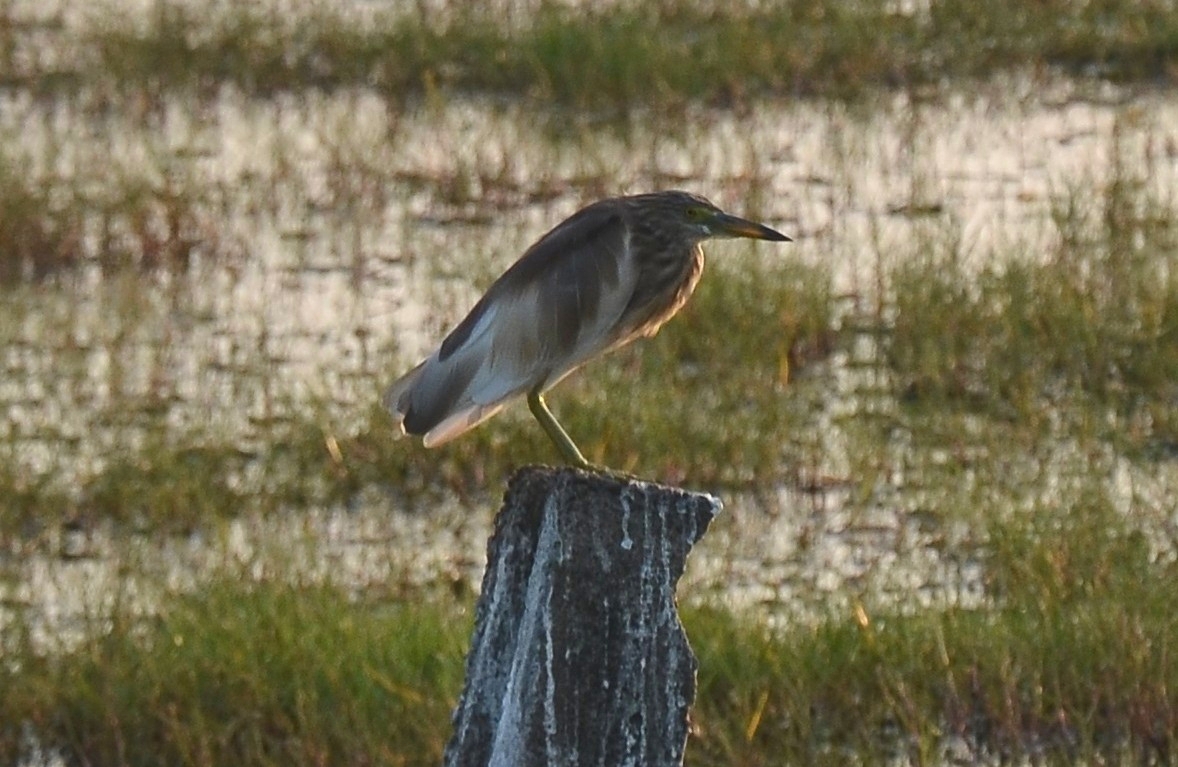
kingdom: Animalia
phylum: Chordata
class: Aves
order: Pelecaniformes
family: Ardeidae
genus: Ardeola
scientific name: Ardeola grayii
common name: Indian pond heron
